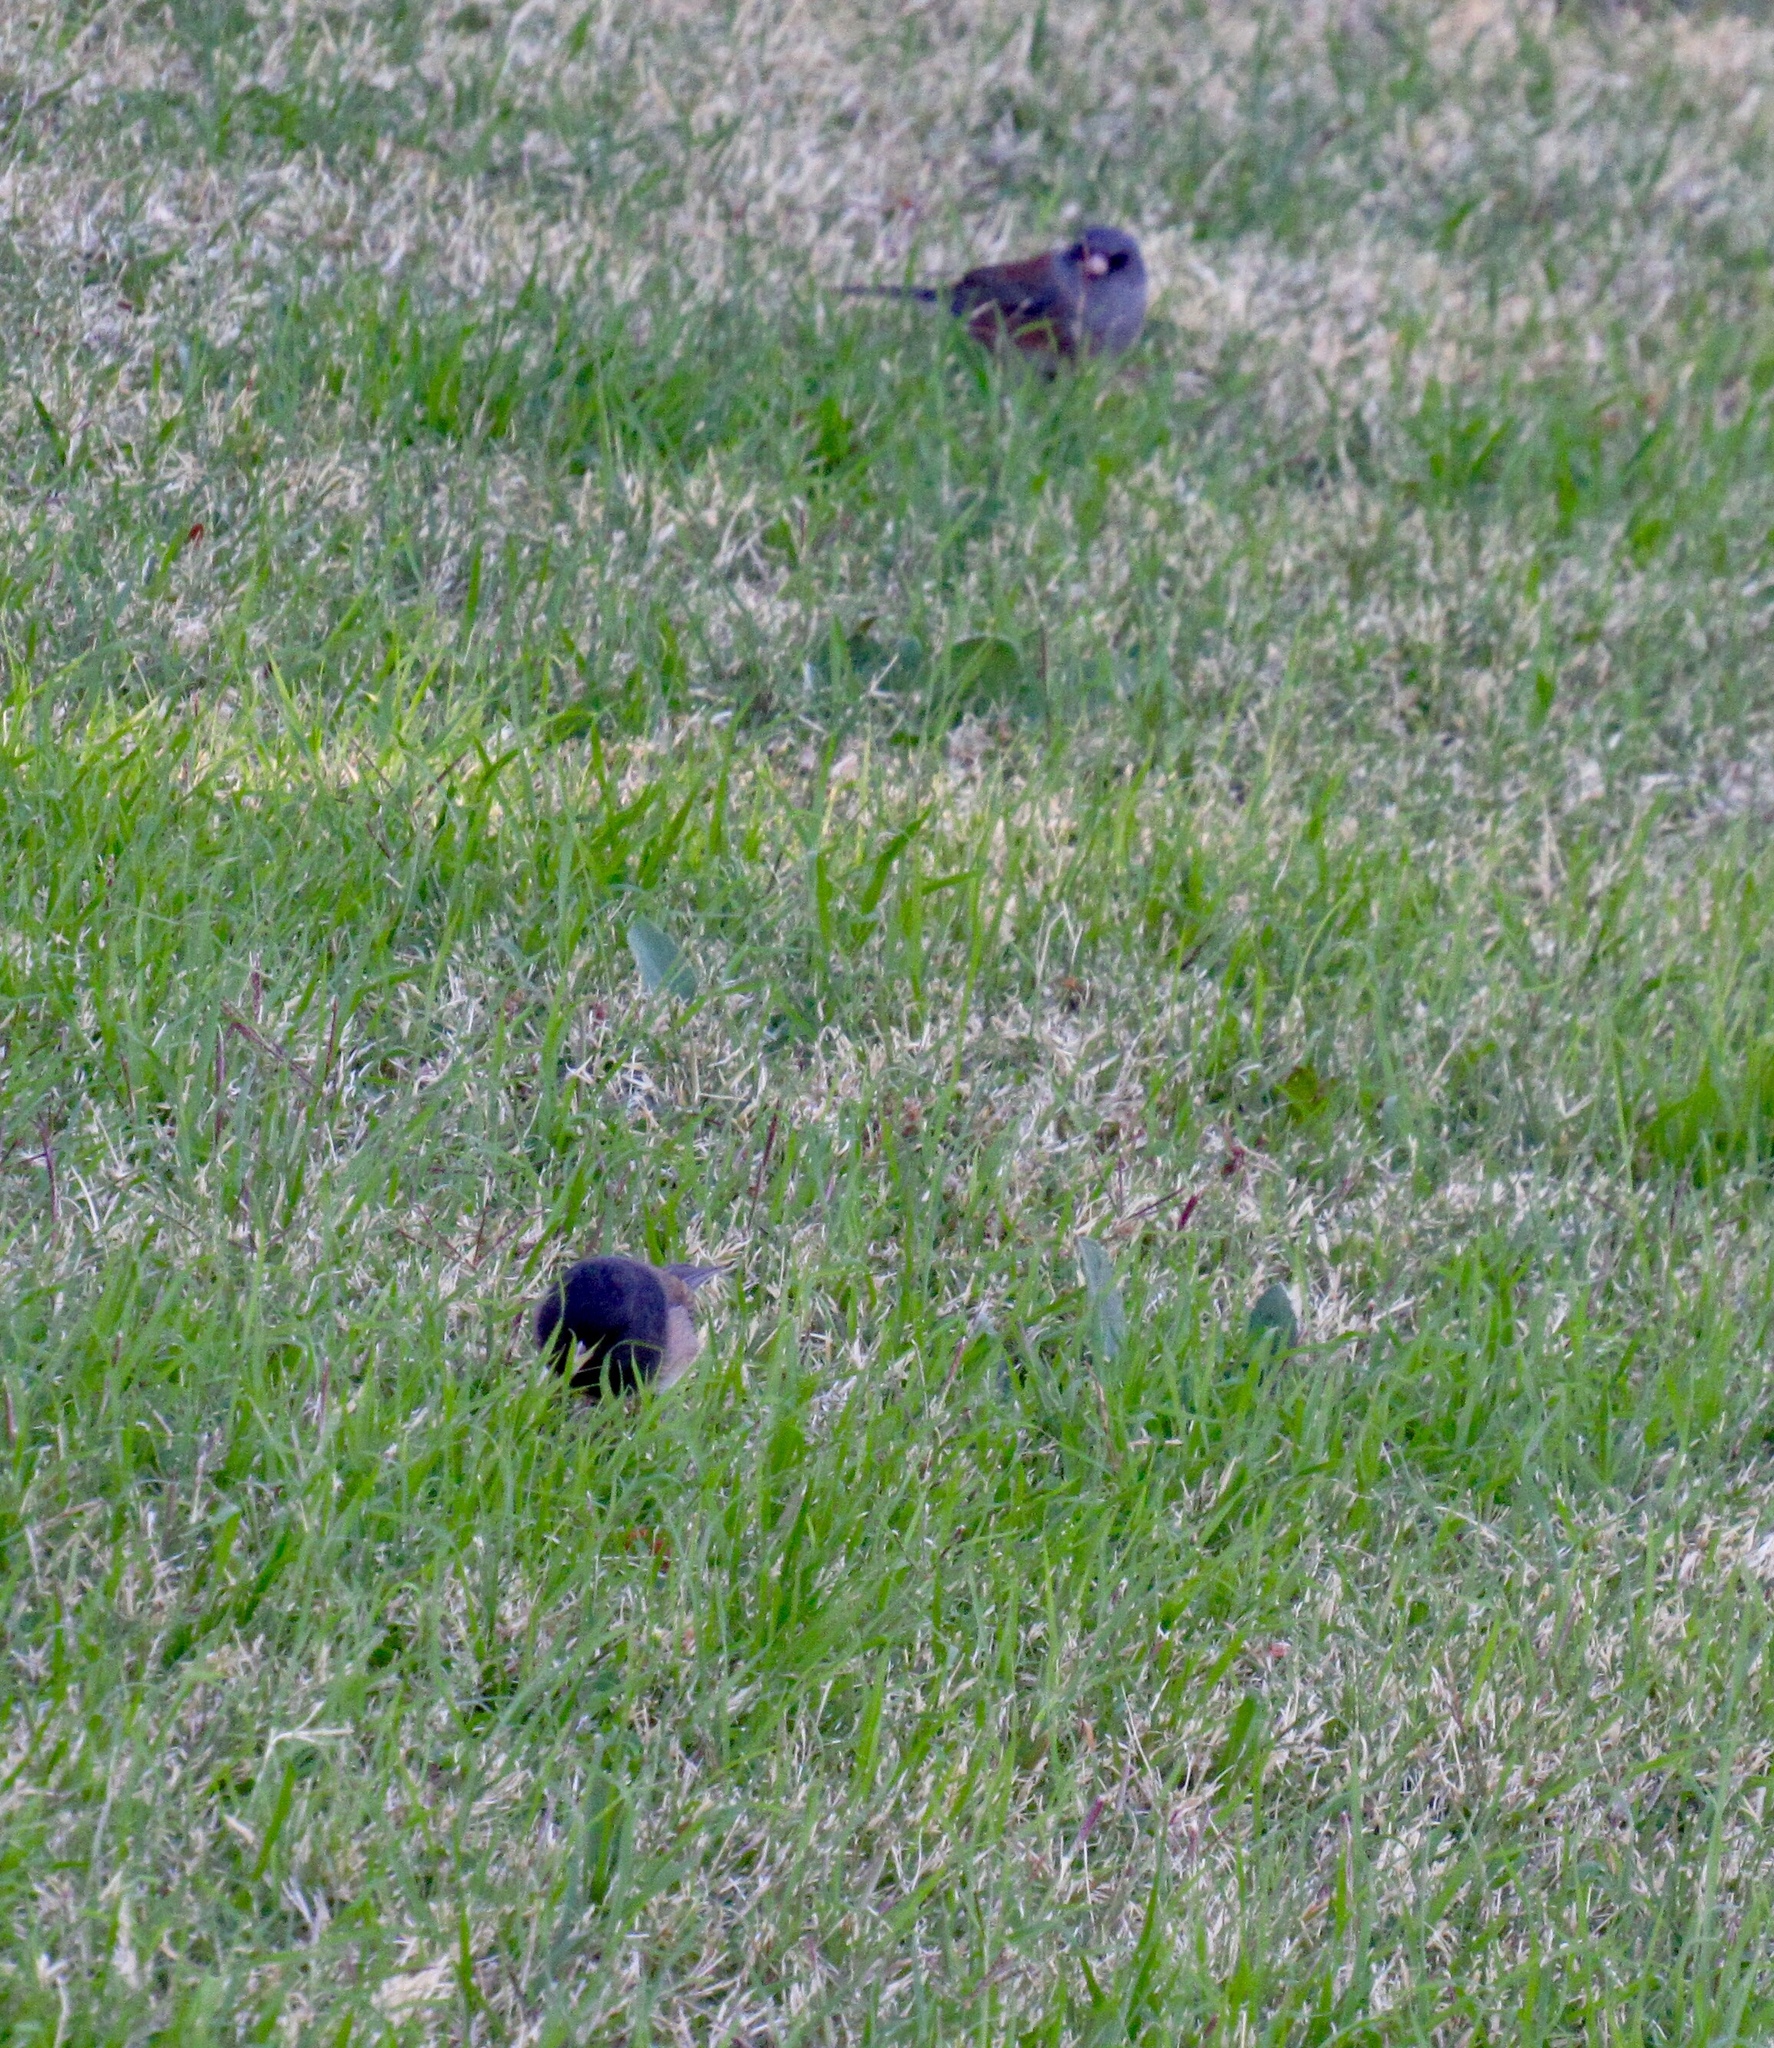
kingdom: Animalia
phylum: Chordata
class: Aves
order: Passeriformes
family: Passerellidae
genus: Junco
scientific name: Junco hyemalis
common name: Dark-eyed junco
